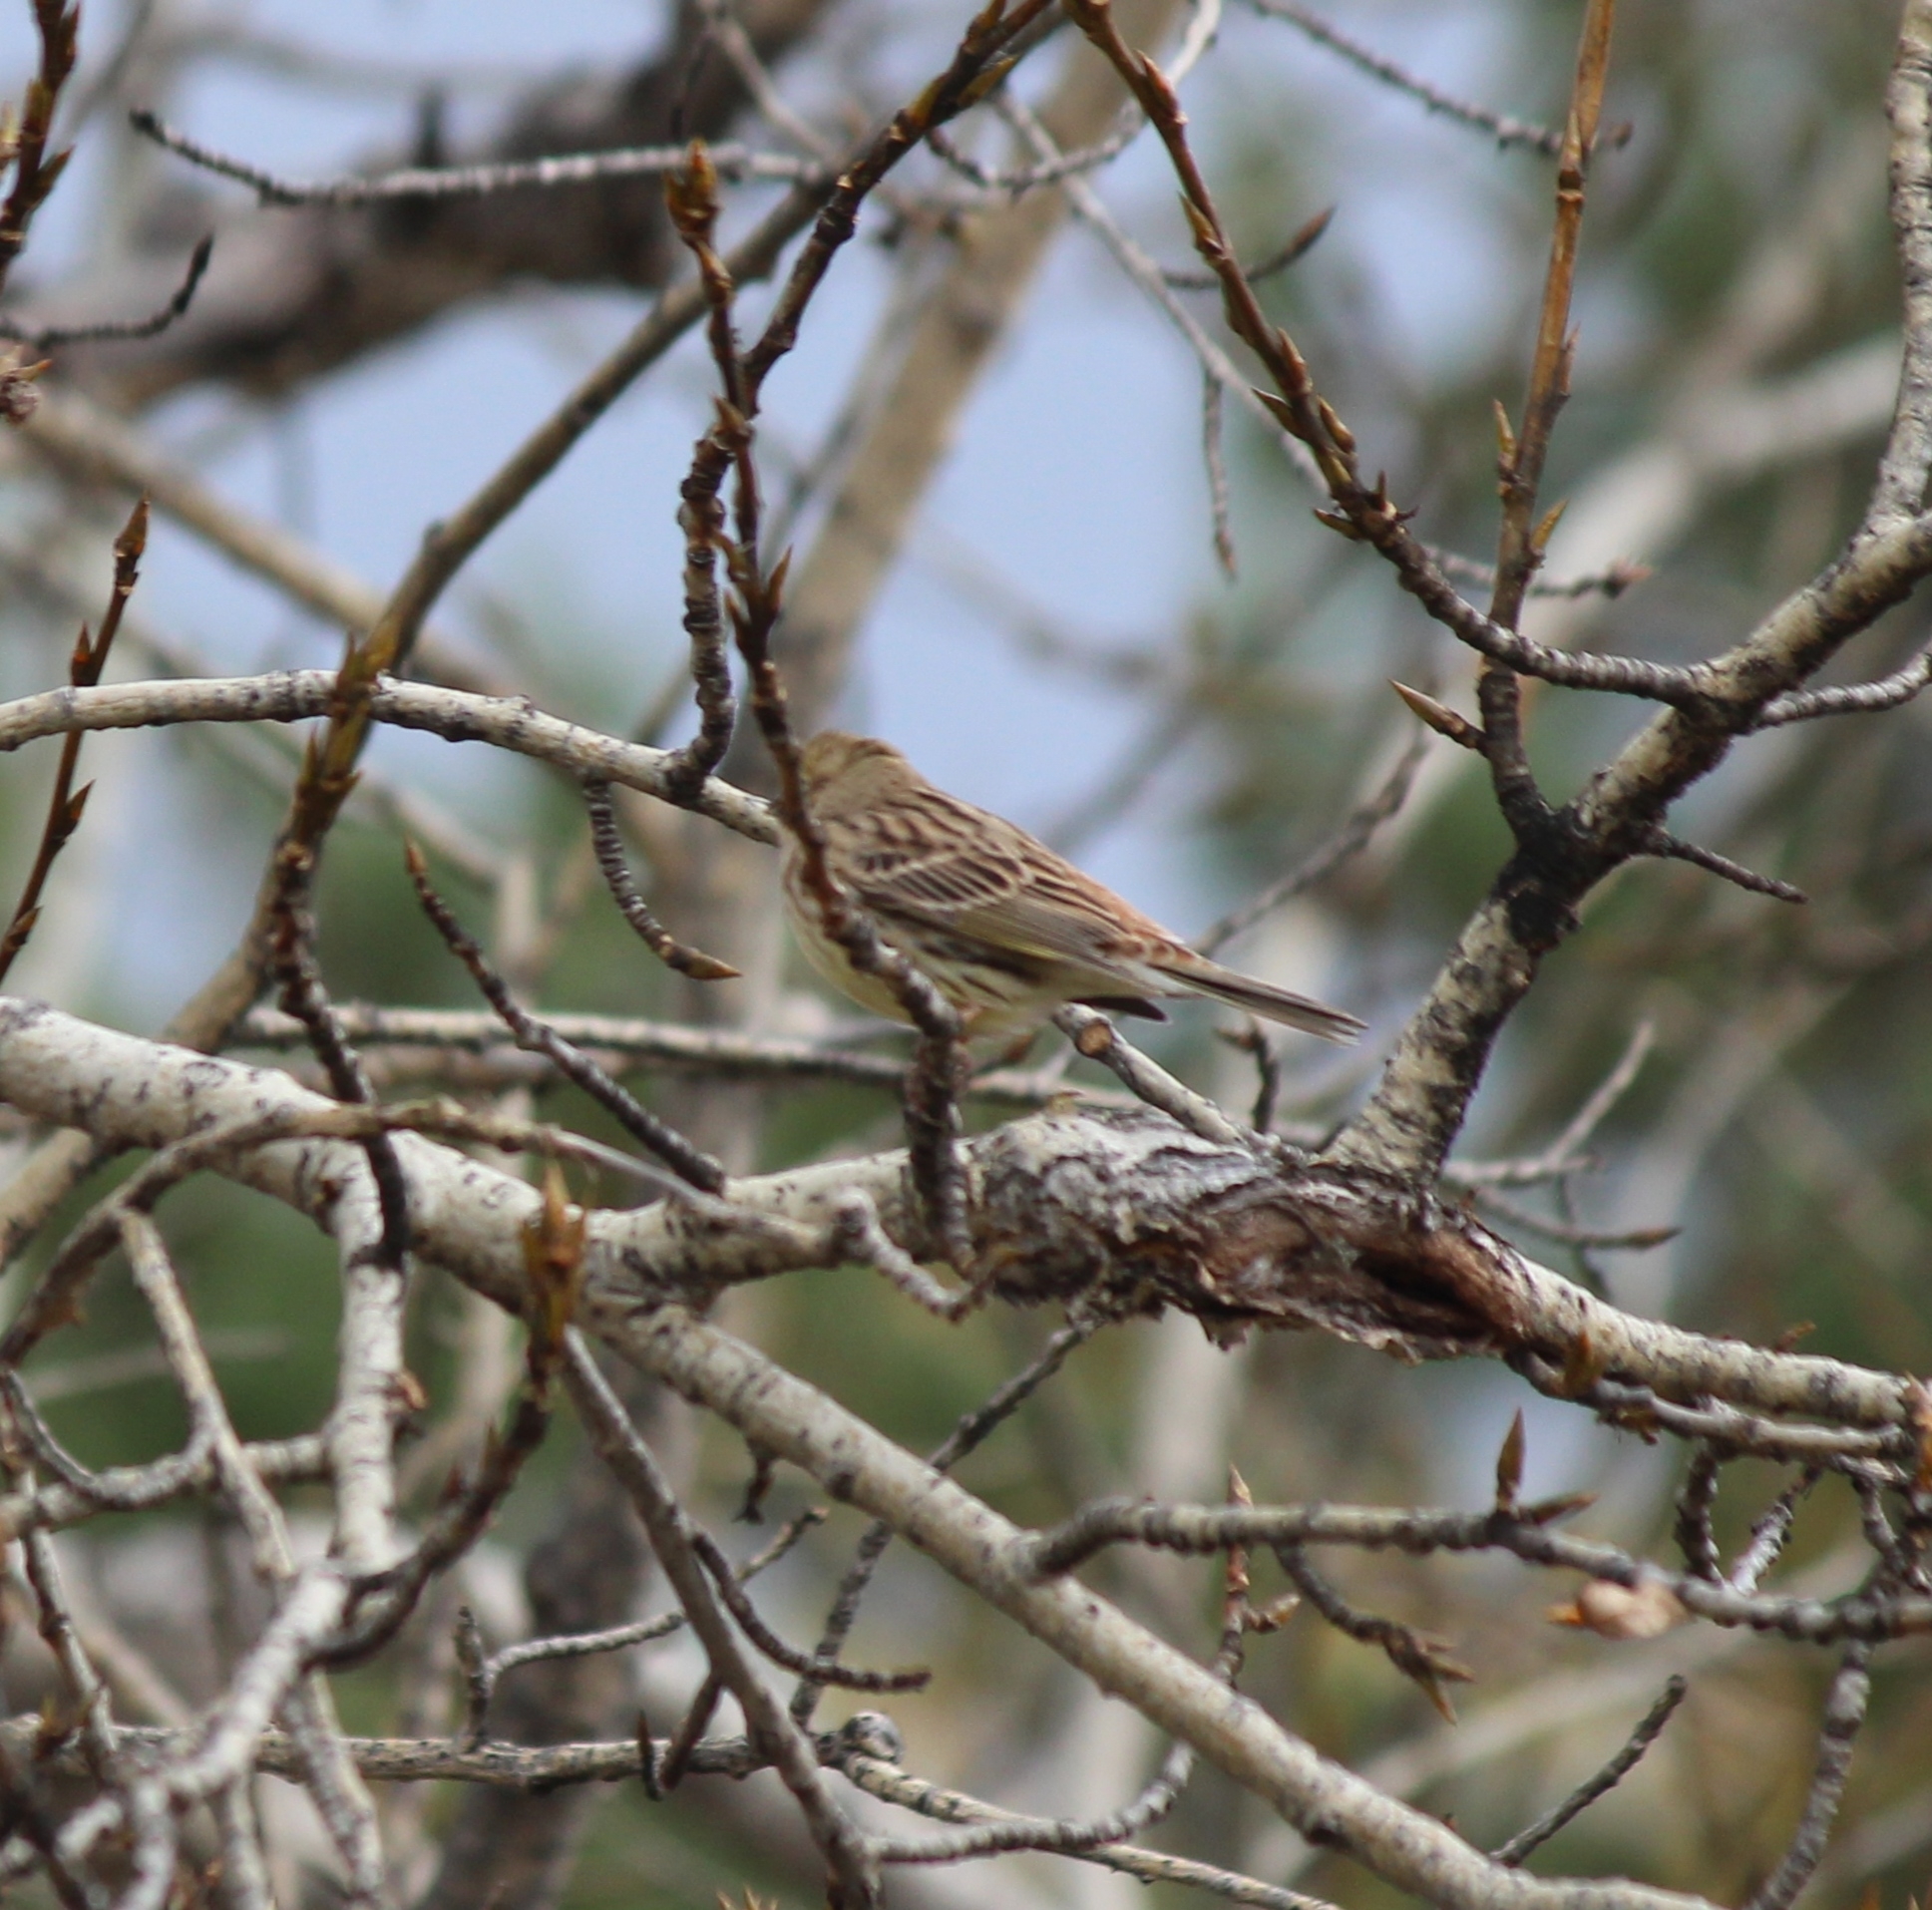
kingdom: Animalia
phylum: Chordata
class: Aves
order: Passeriformes
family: Emberizidae
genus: Emberiza
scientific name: Emberiza citrinella
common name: Yellowhammer
